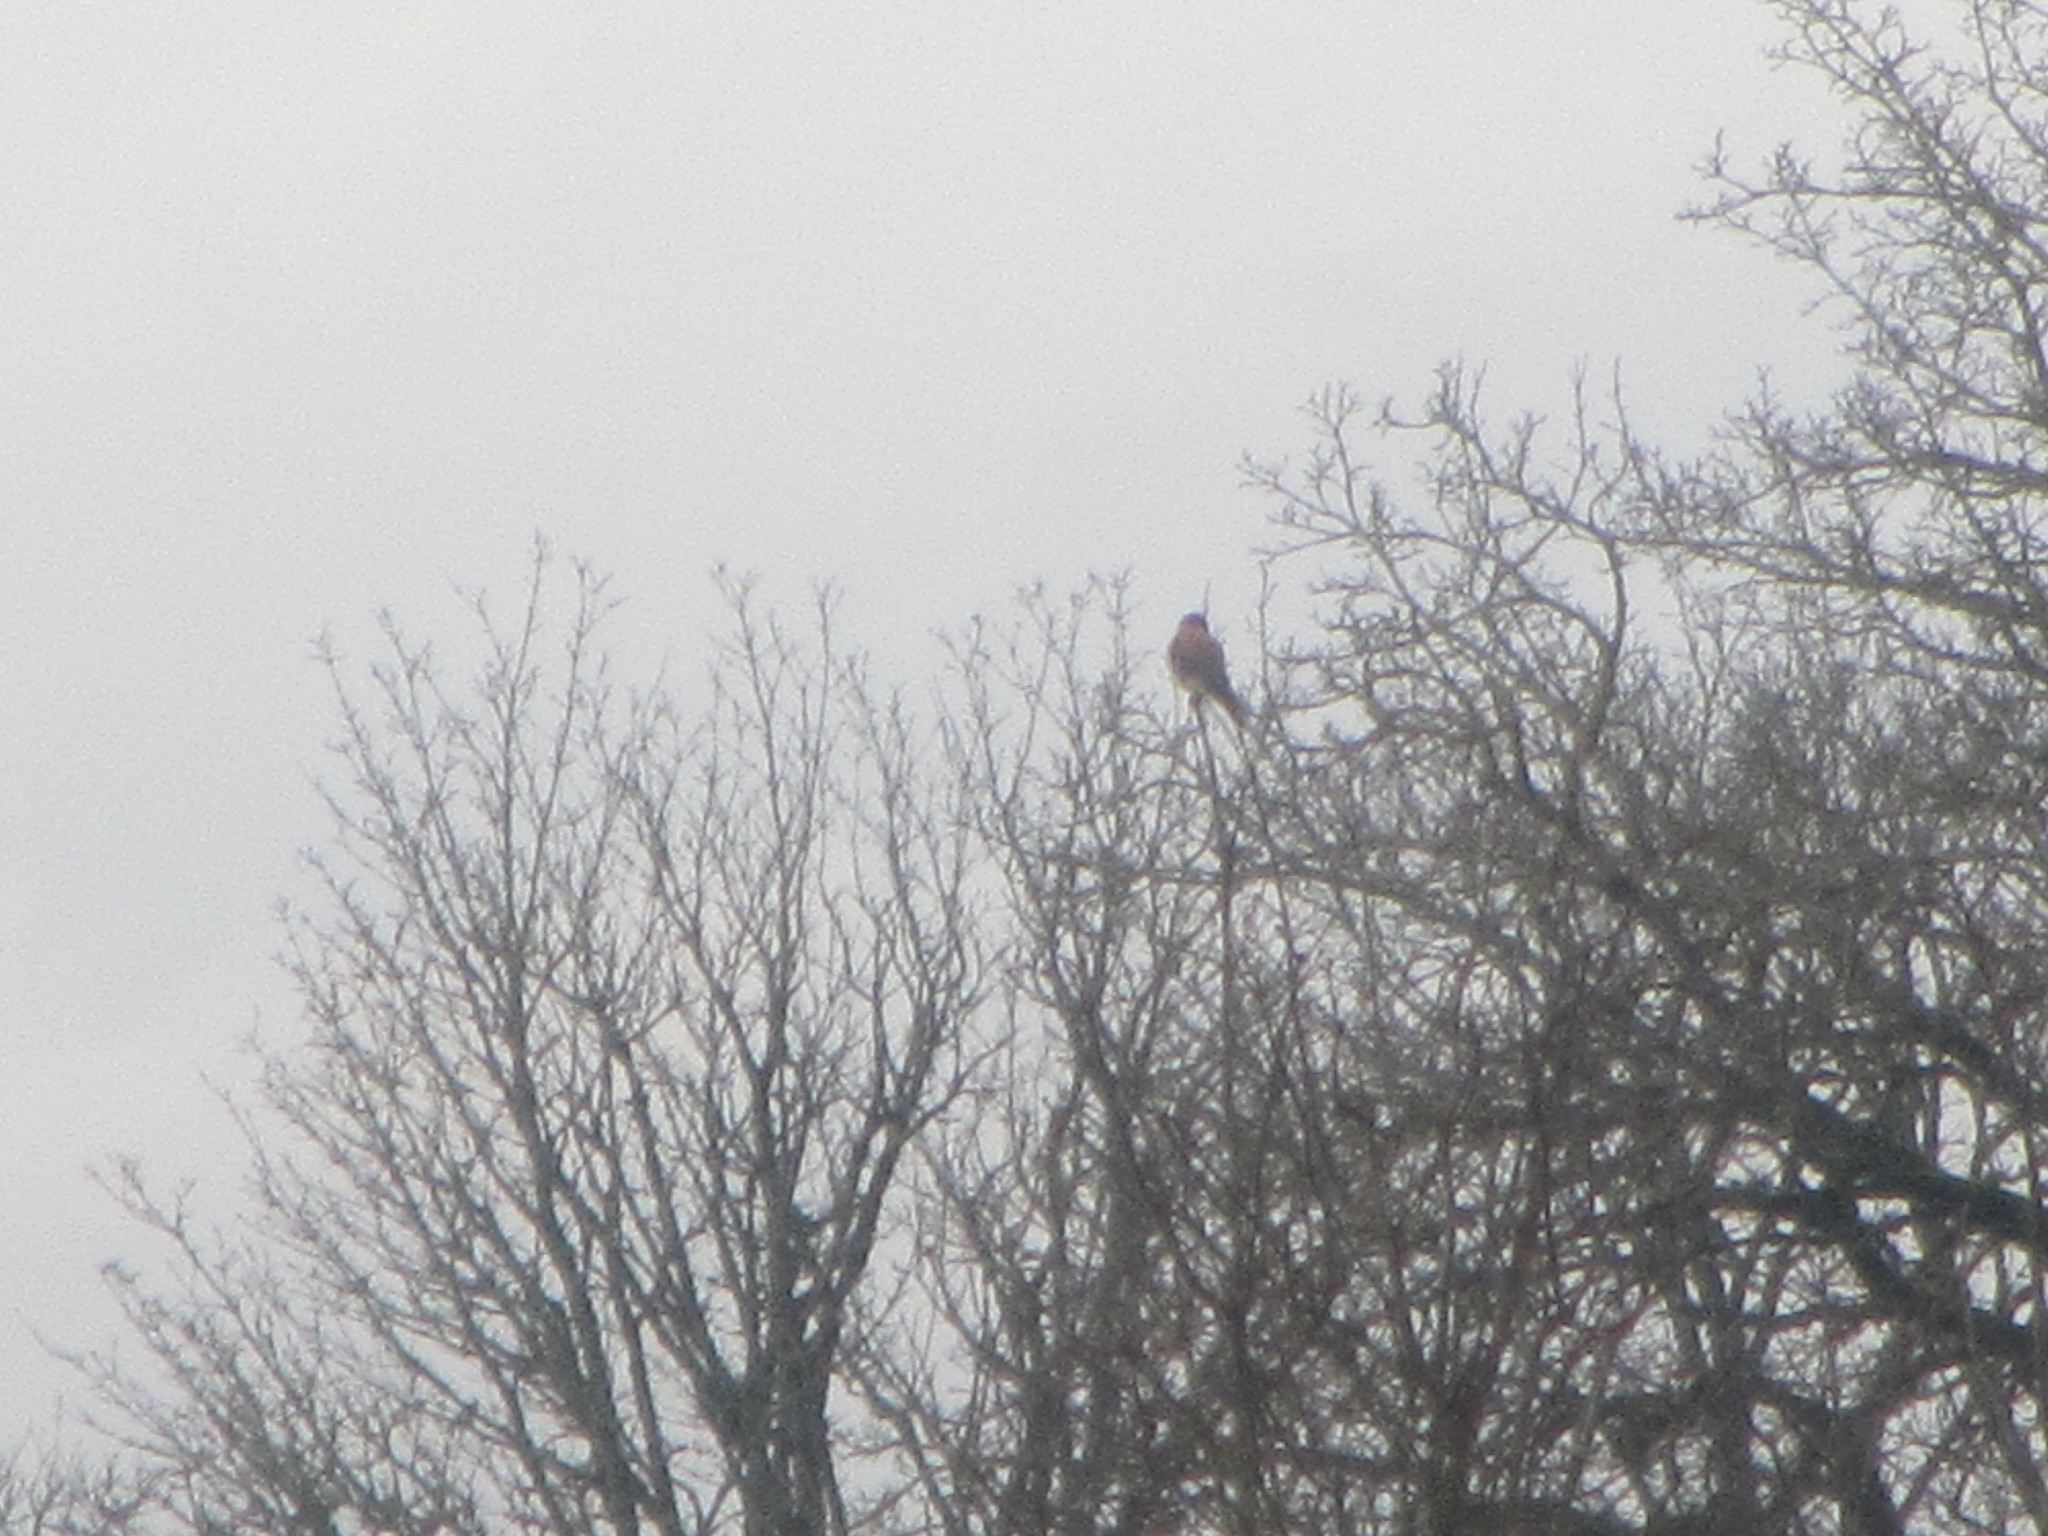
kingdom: Animalia
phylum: Chordata
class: Aves
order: Falconiformes
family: Falconidae
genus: Falco
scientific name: Falco sparverius
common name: American kestrel
